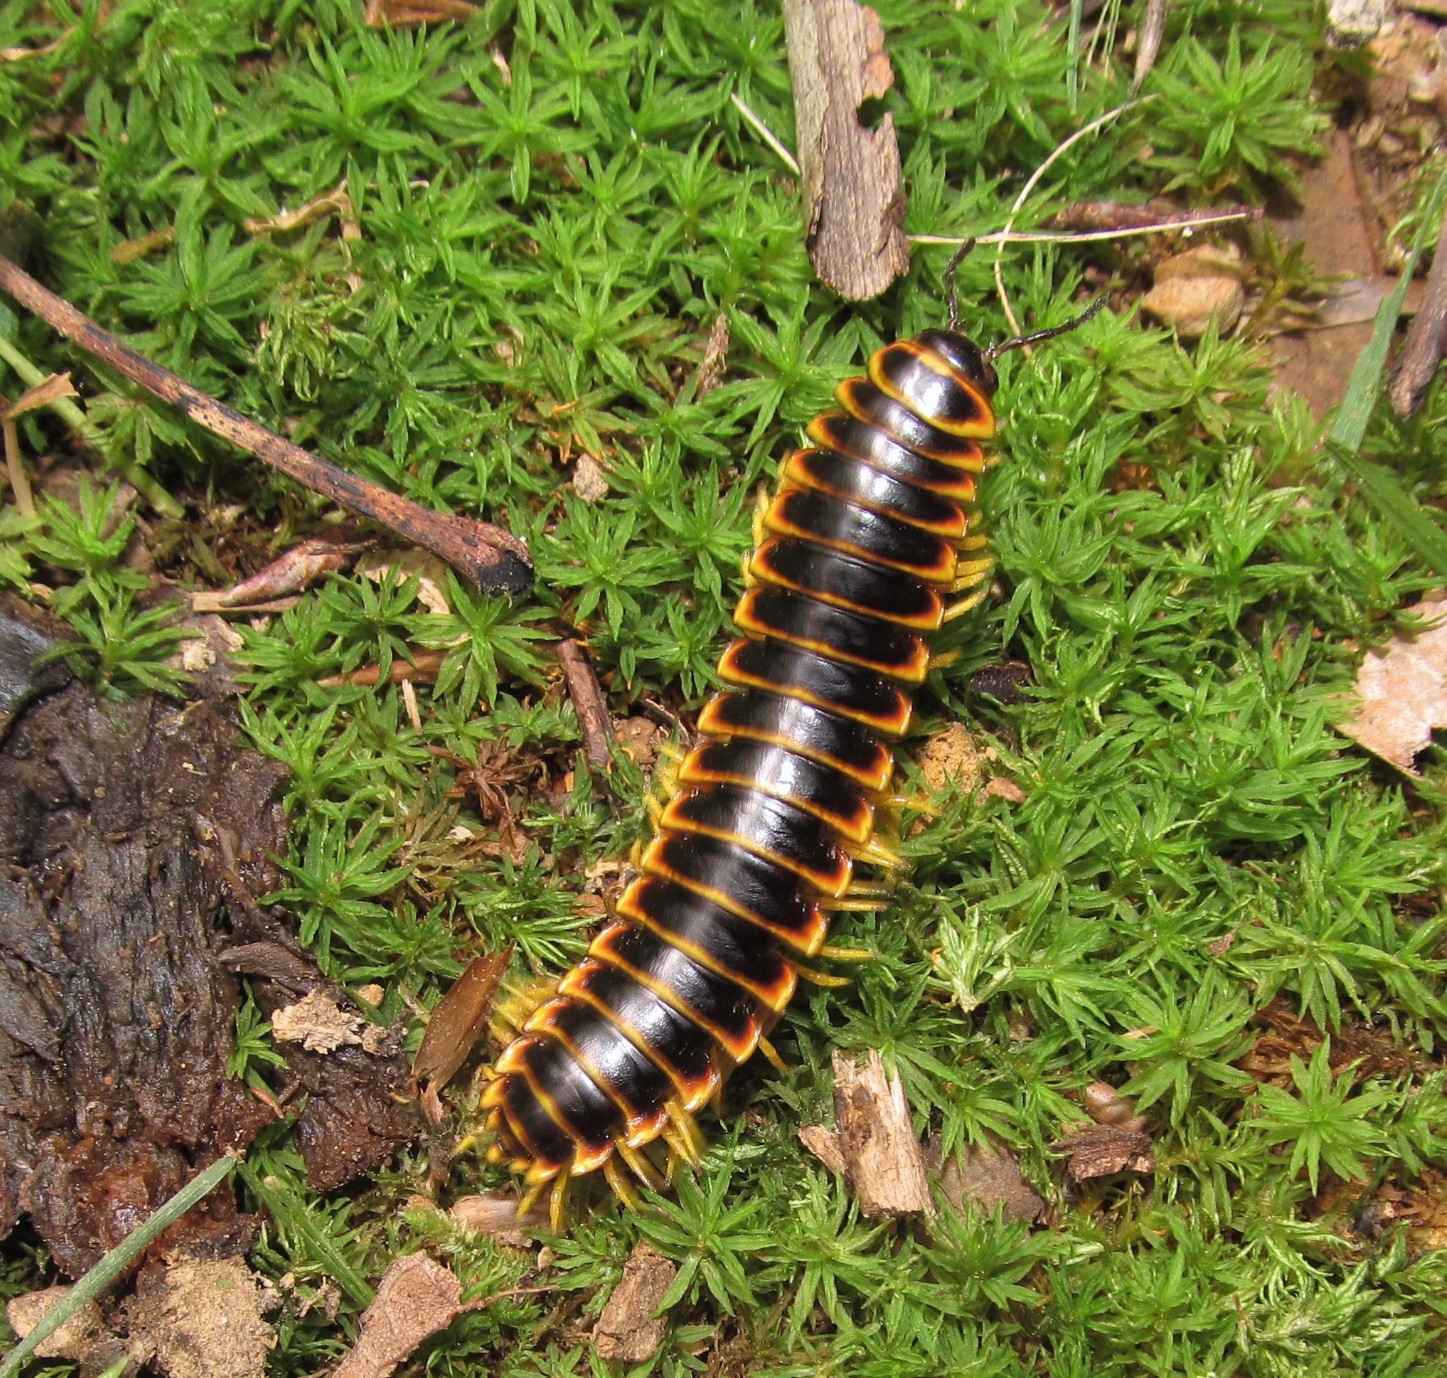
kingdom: Animalia
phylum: Arthropoda
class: Diplopoda
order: Polydesmida
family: Xystodesmidae
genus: Apheloria
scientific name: Apheloria virginiensis
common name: Black-and-gold flat millipede
